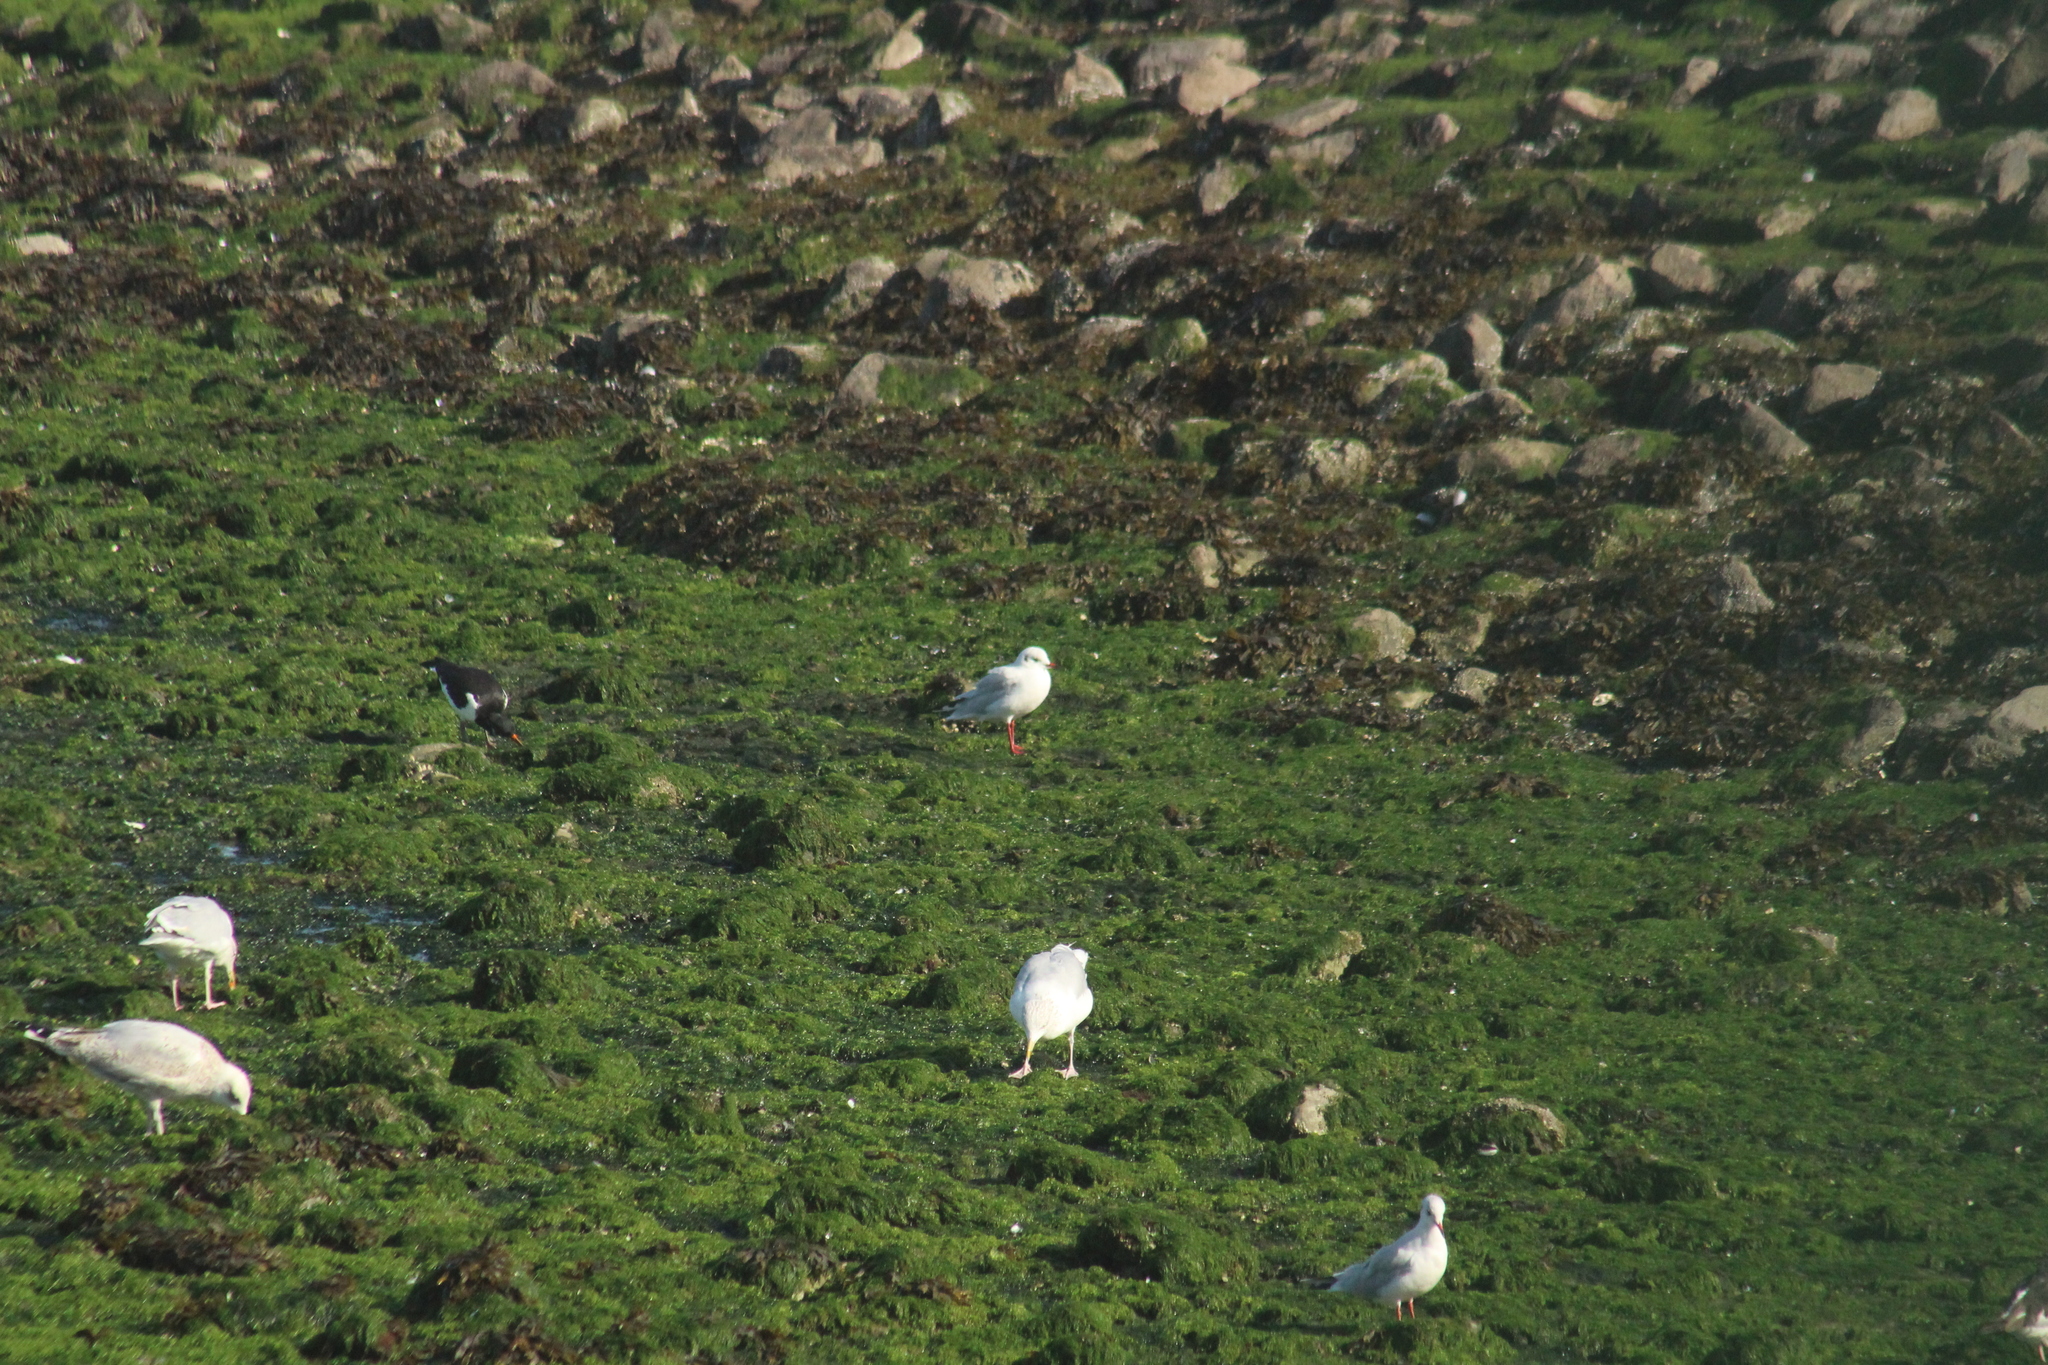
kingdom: Animalia
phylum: Chordata
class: Aves
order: Charadriiformes
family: Laridae
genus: Chroicocephalus
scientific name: Chroicocephalus ridibundus
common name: Black-headed gull
